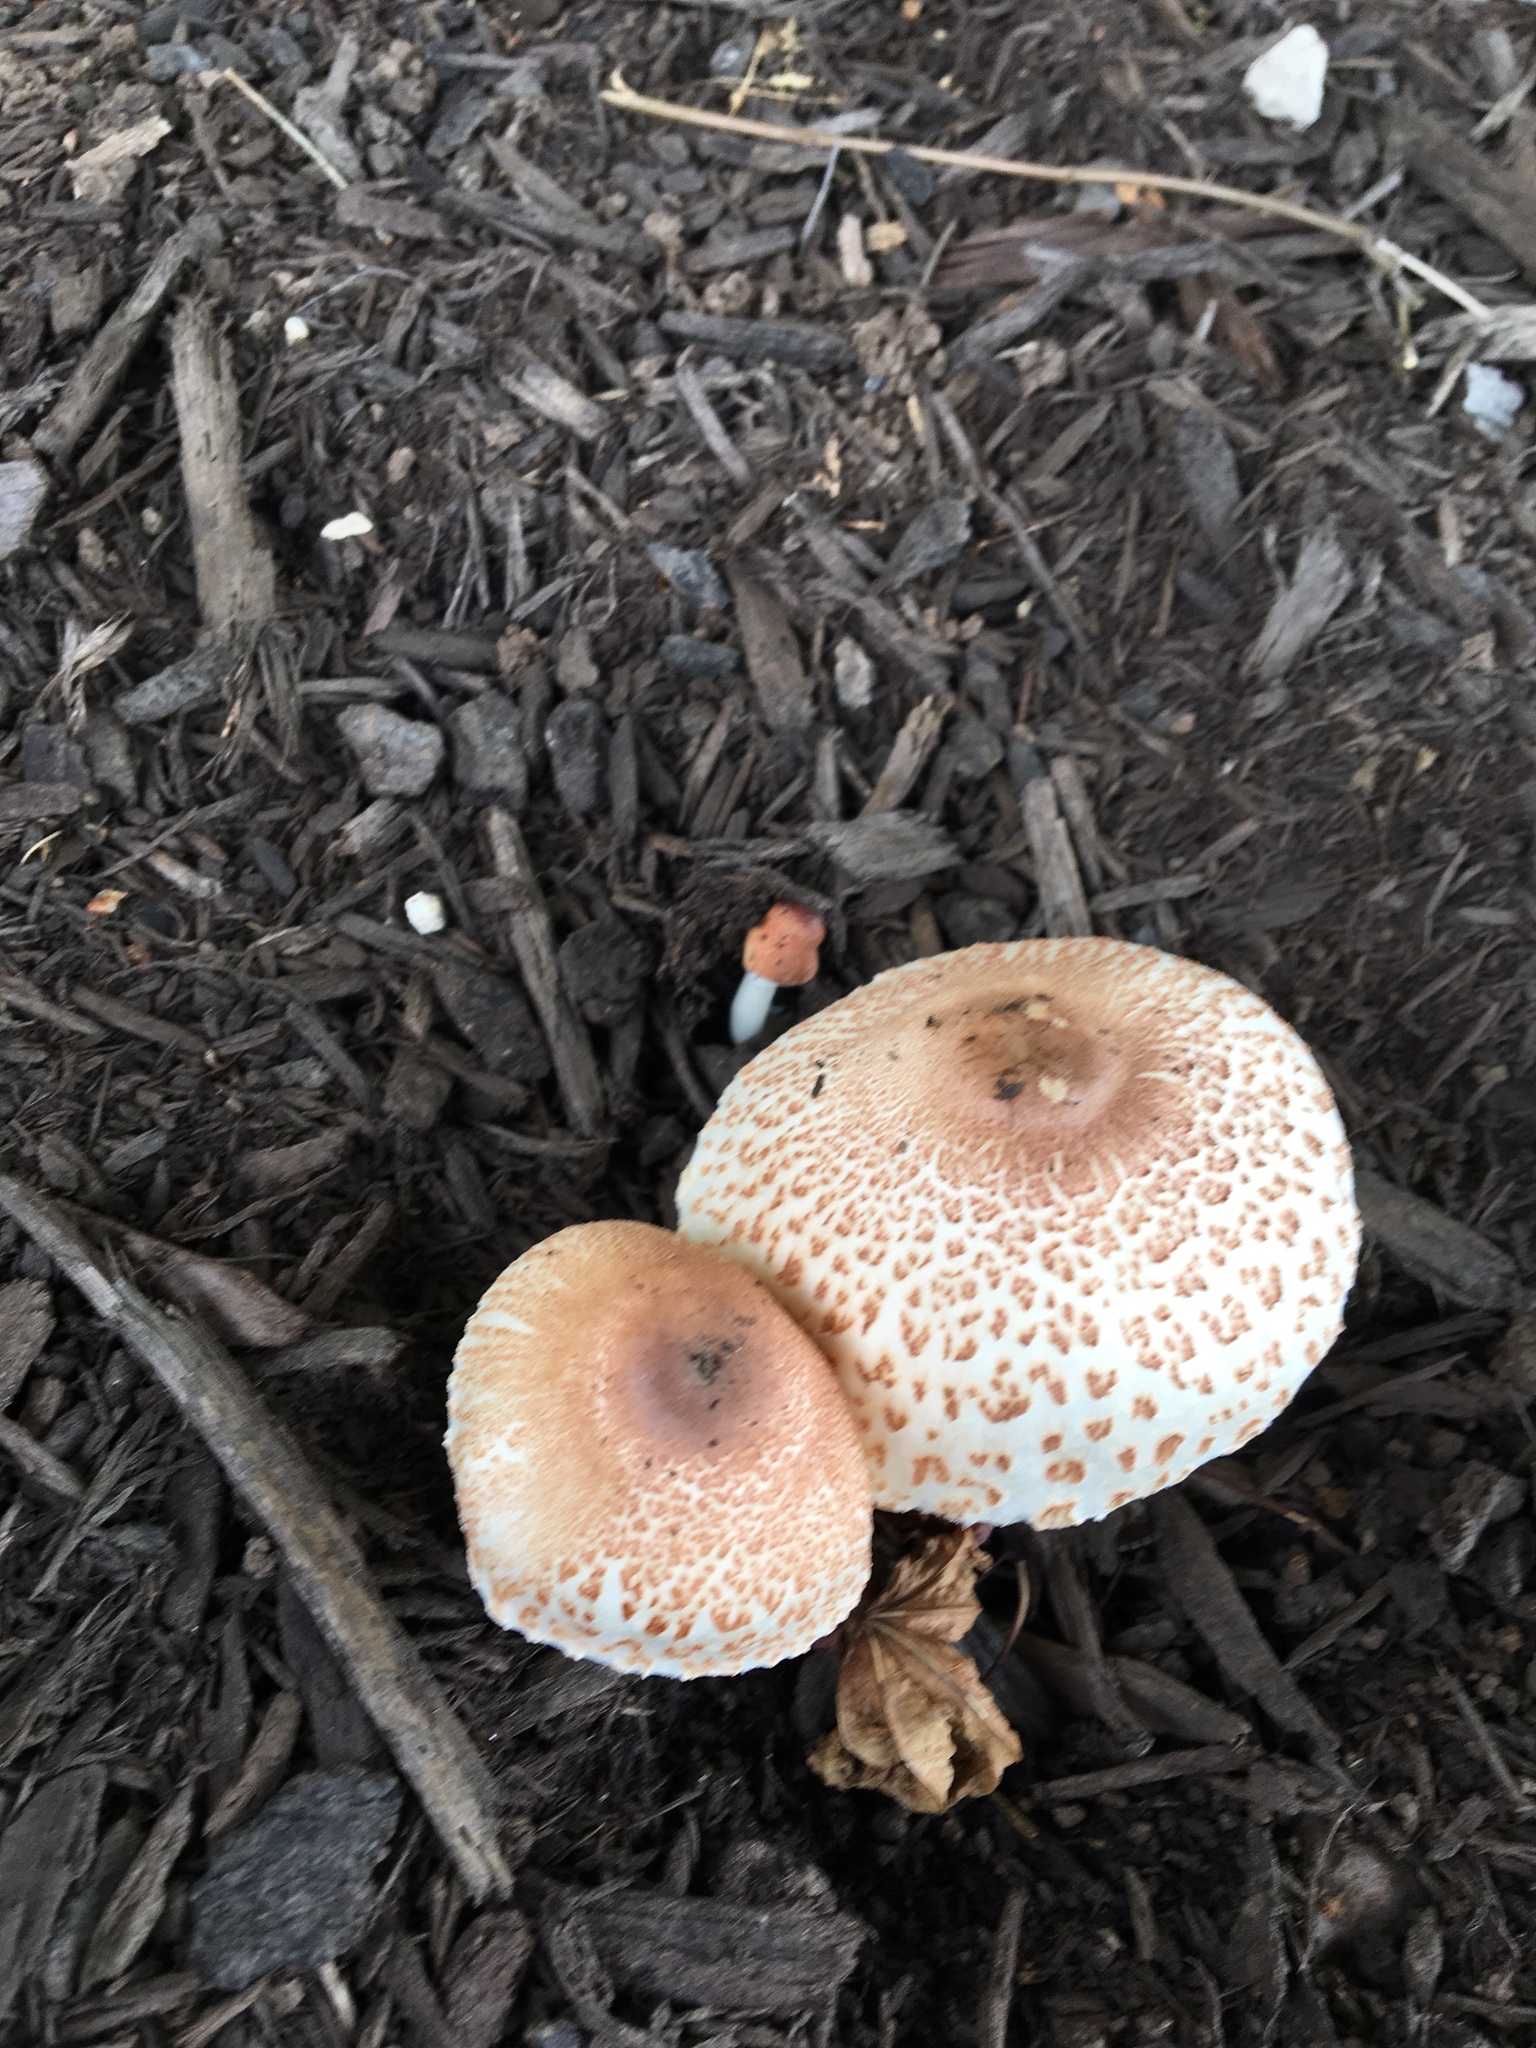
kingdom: Fungi
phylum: Basidiomycota
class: Agaricomycetes
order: Agaricales
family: Agaricaceae
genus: Leucoagaricus
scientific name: Leucoagaricus americanus
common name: Reddening lepiota
